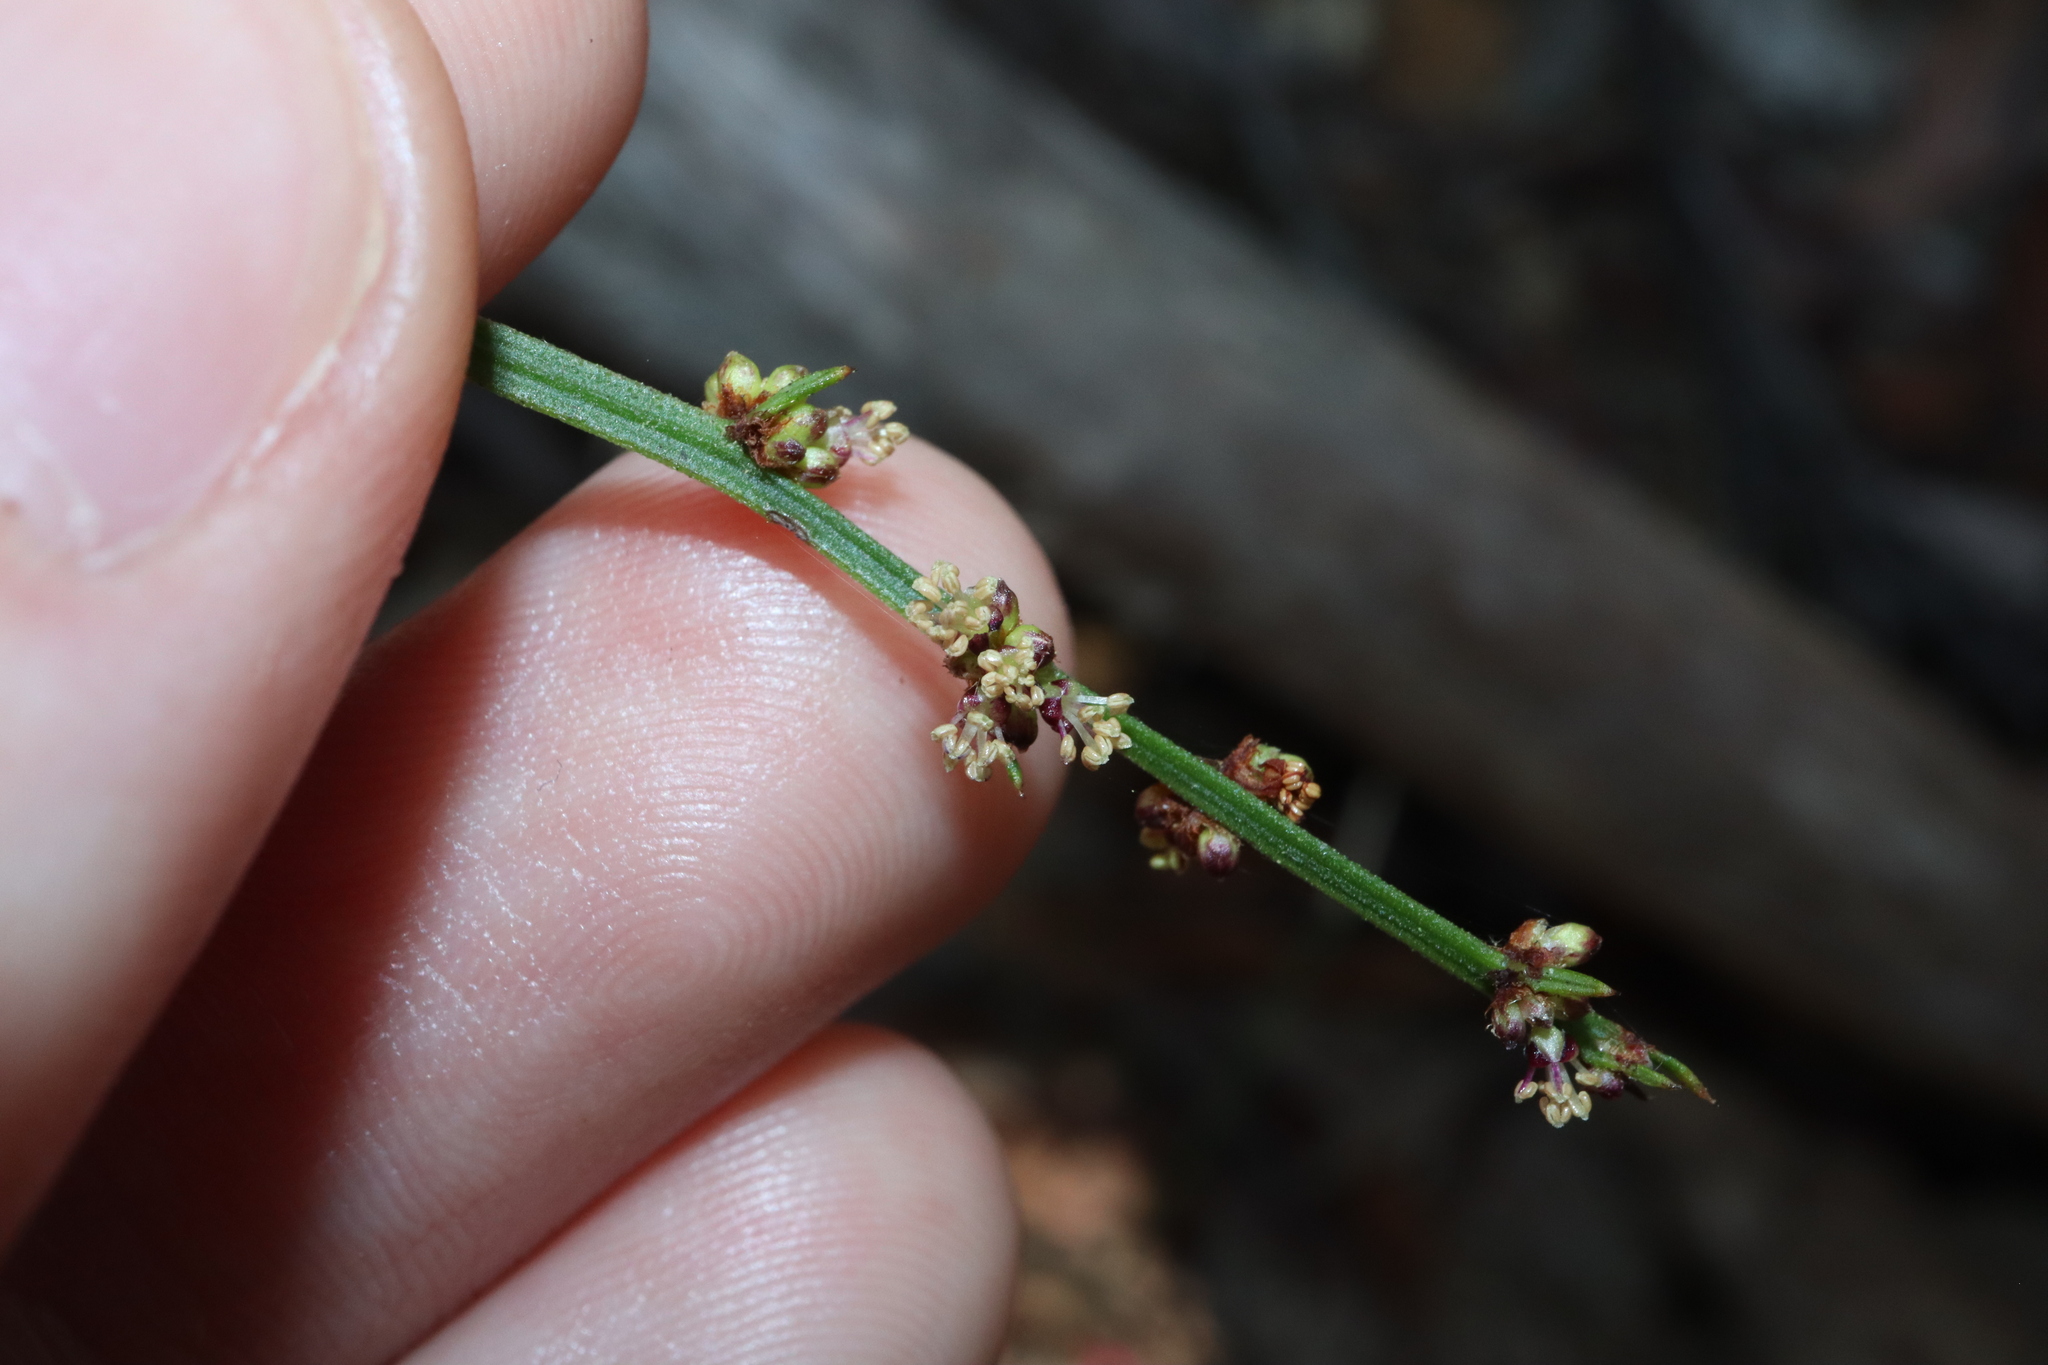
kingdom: Plantae
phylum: Tracheophyta
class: Magnoliopsida
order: Malpighiales
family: Euphorbiaceae
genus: Amperea
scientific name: Amperea xiphoclada
